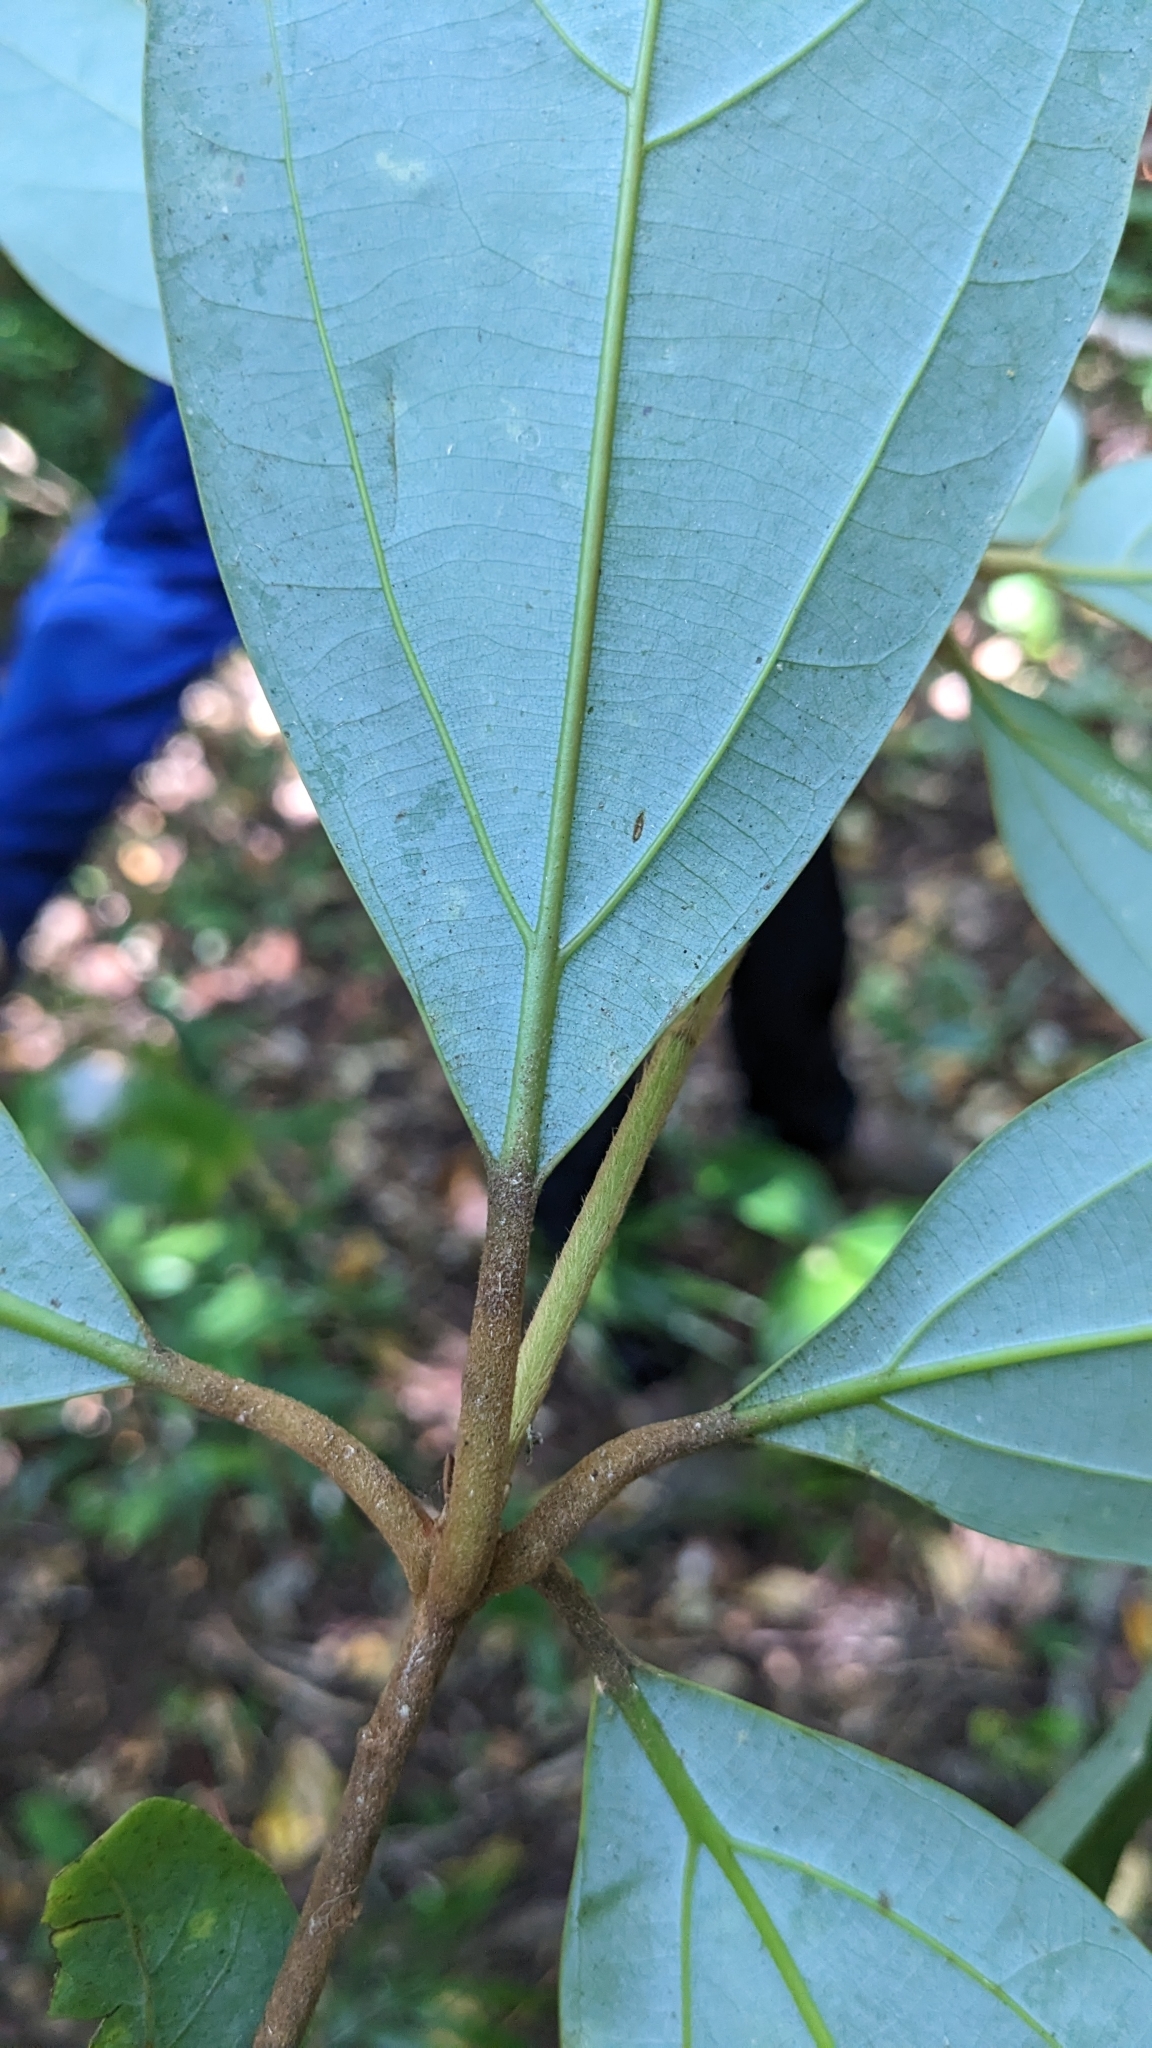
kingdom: Plantae
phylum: Tracheophyta
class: Magnoliopsida
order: Laurales
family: Lauraceae
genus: Neolitsea
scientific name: Neolitsea villosa
